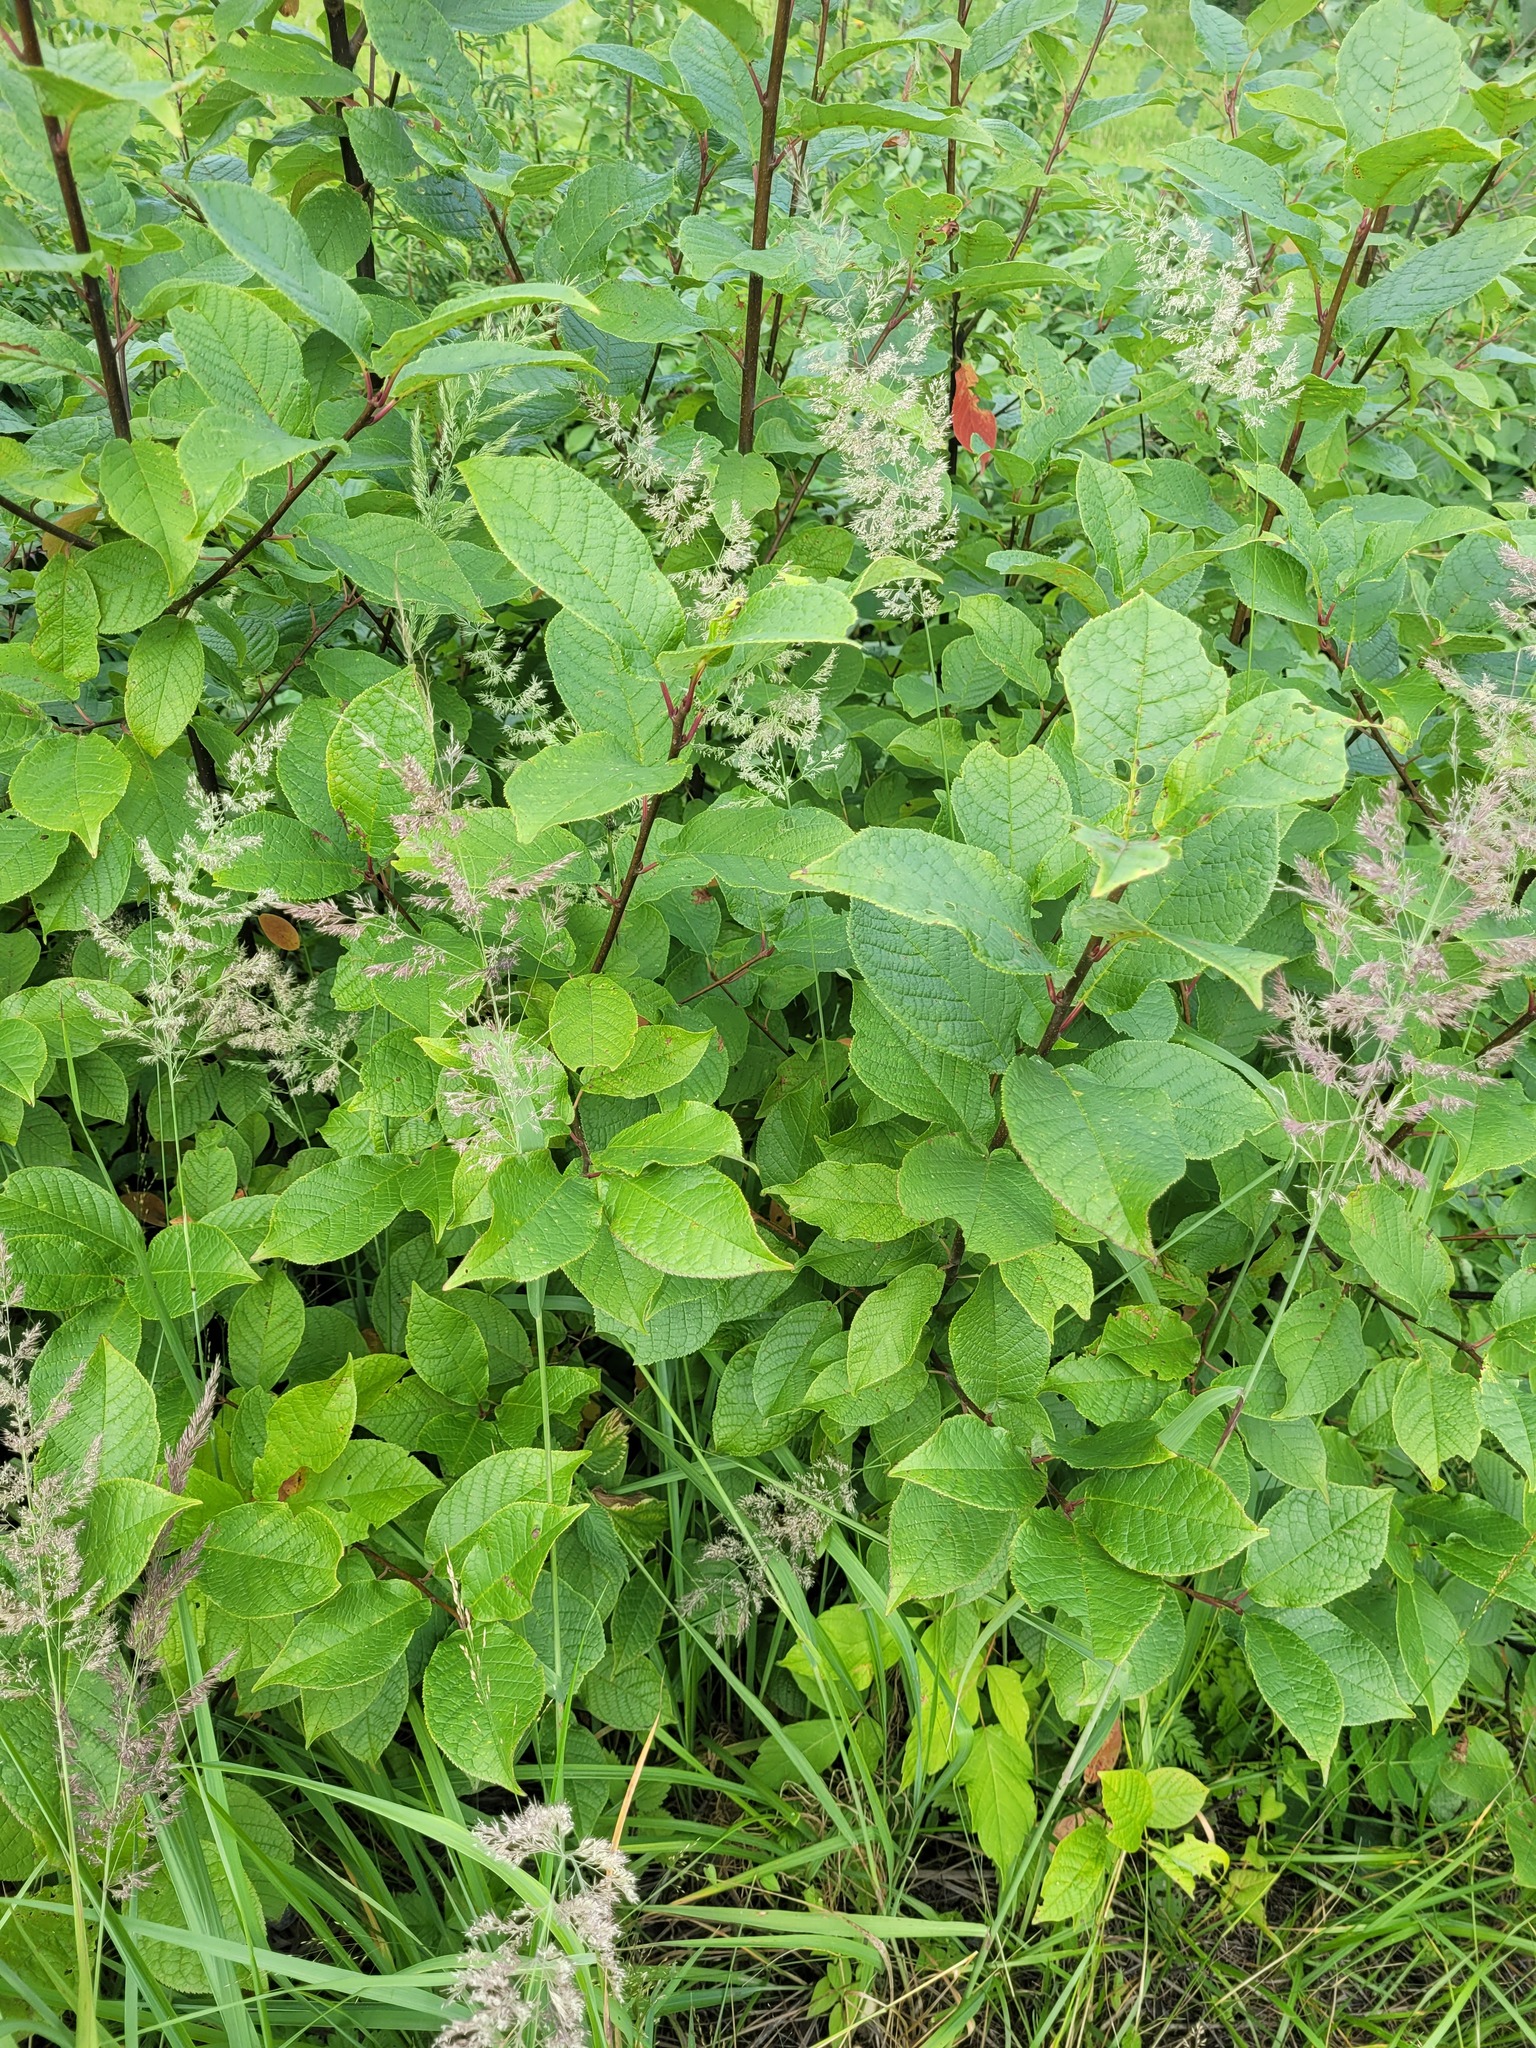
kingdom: Plantae
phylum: Tracheophyta
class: Magnoliopsida
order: Rosales
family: Rosaceae
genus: Prunus
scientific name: Prunus padus
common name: Bird cherry
